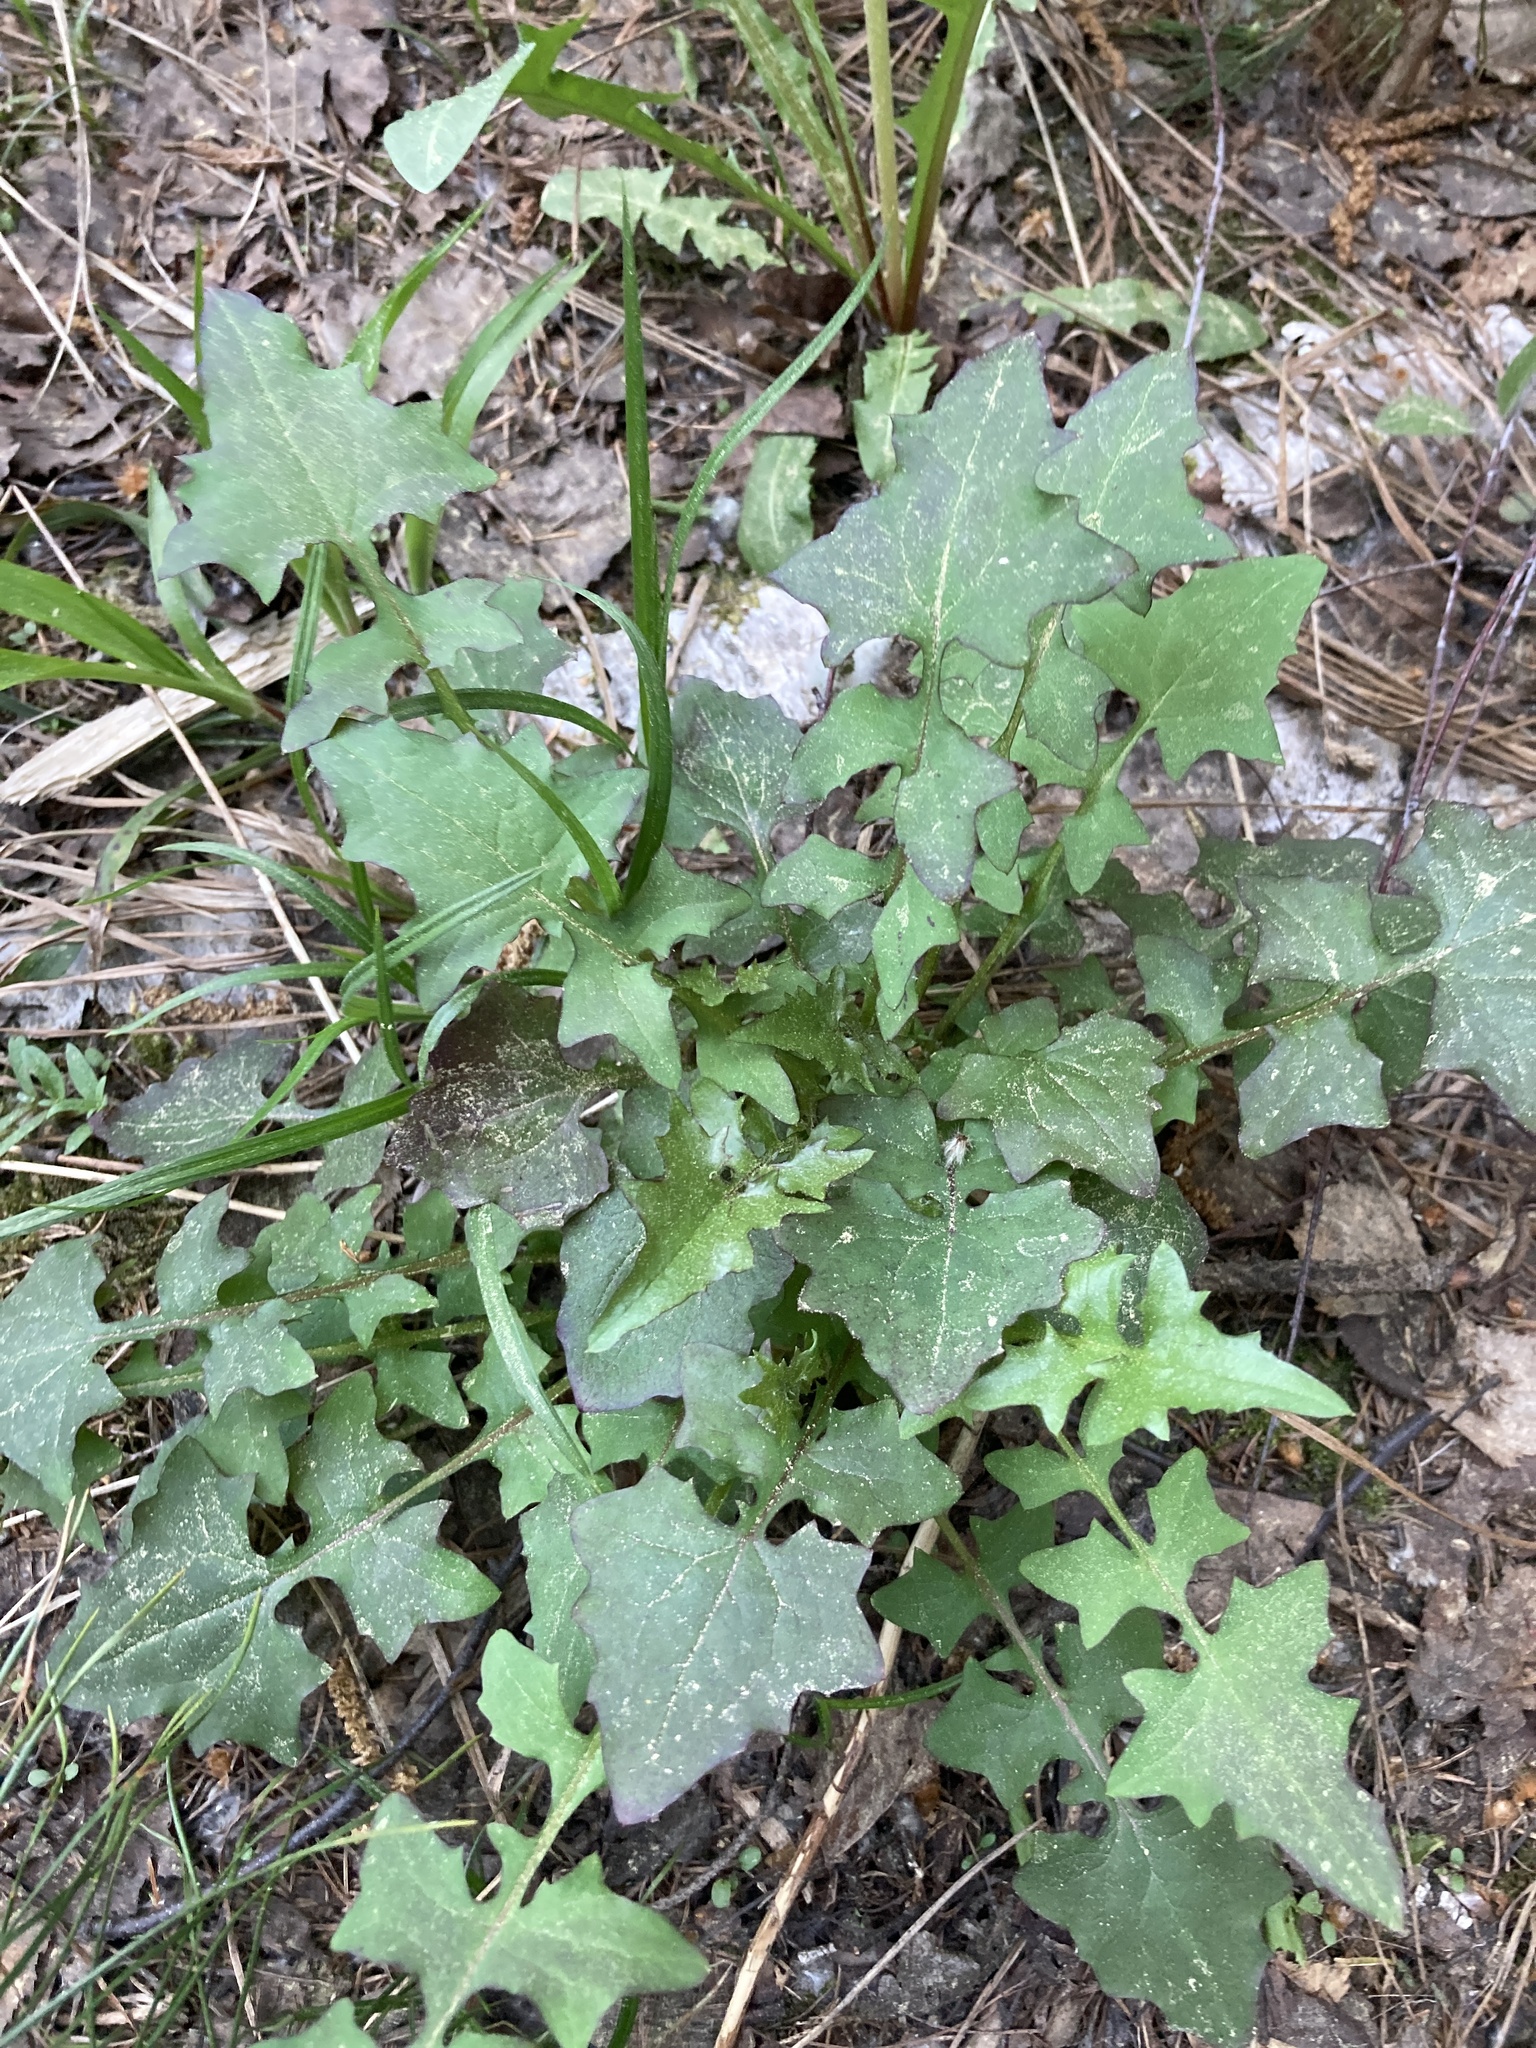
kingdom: Plantae
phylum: Tracheophyta
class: Magnoliopsida
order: Asterales
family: Asteraceae
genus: Mycelis
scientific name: Mycelis muralis
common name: Wall lettuce
